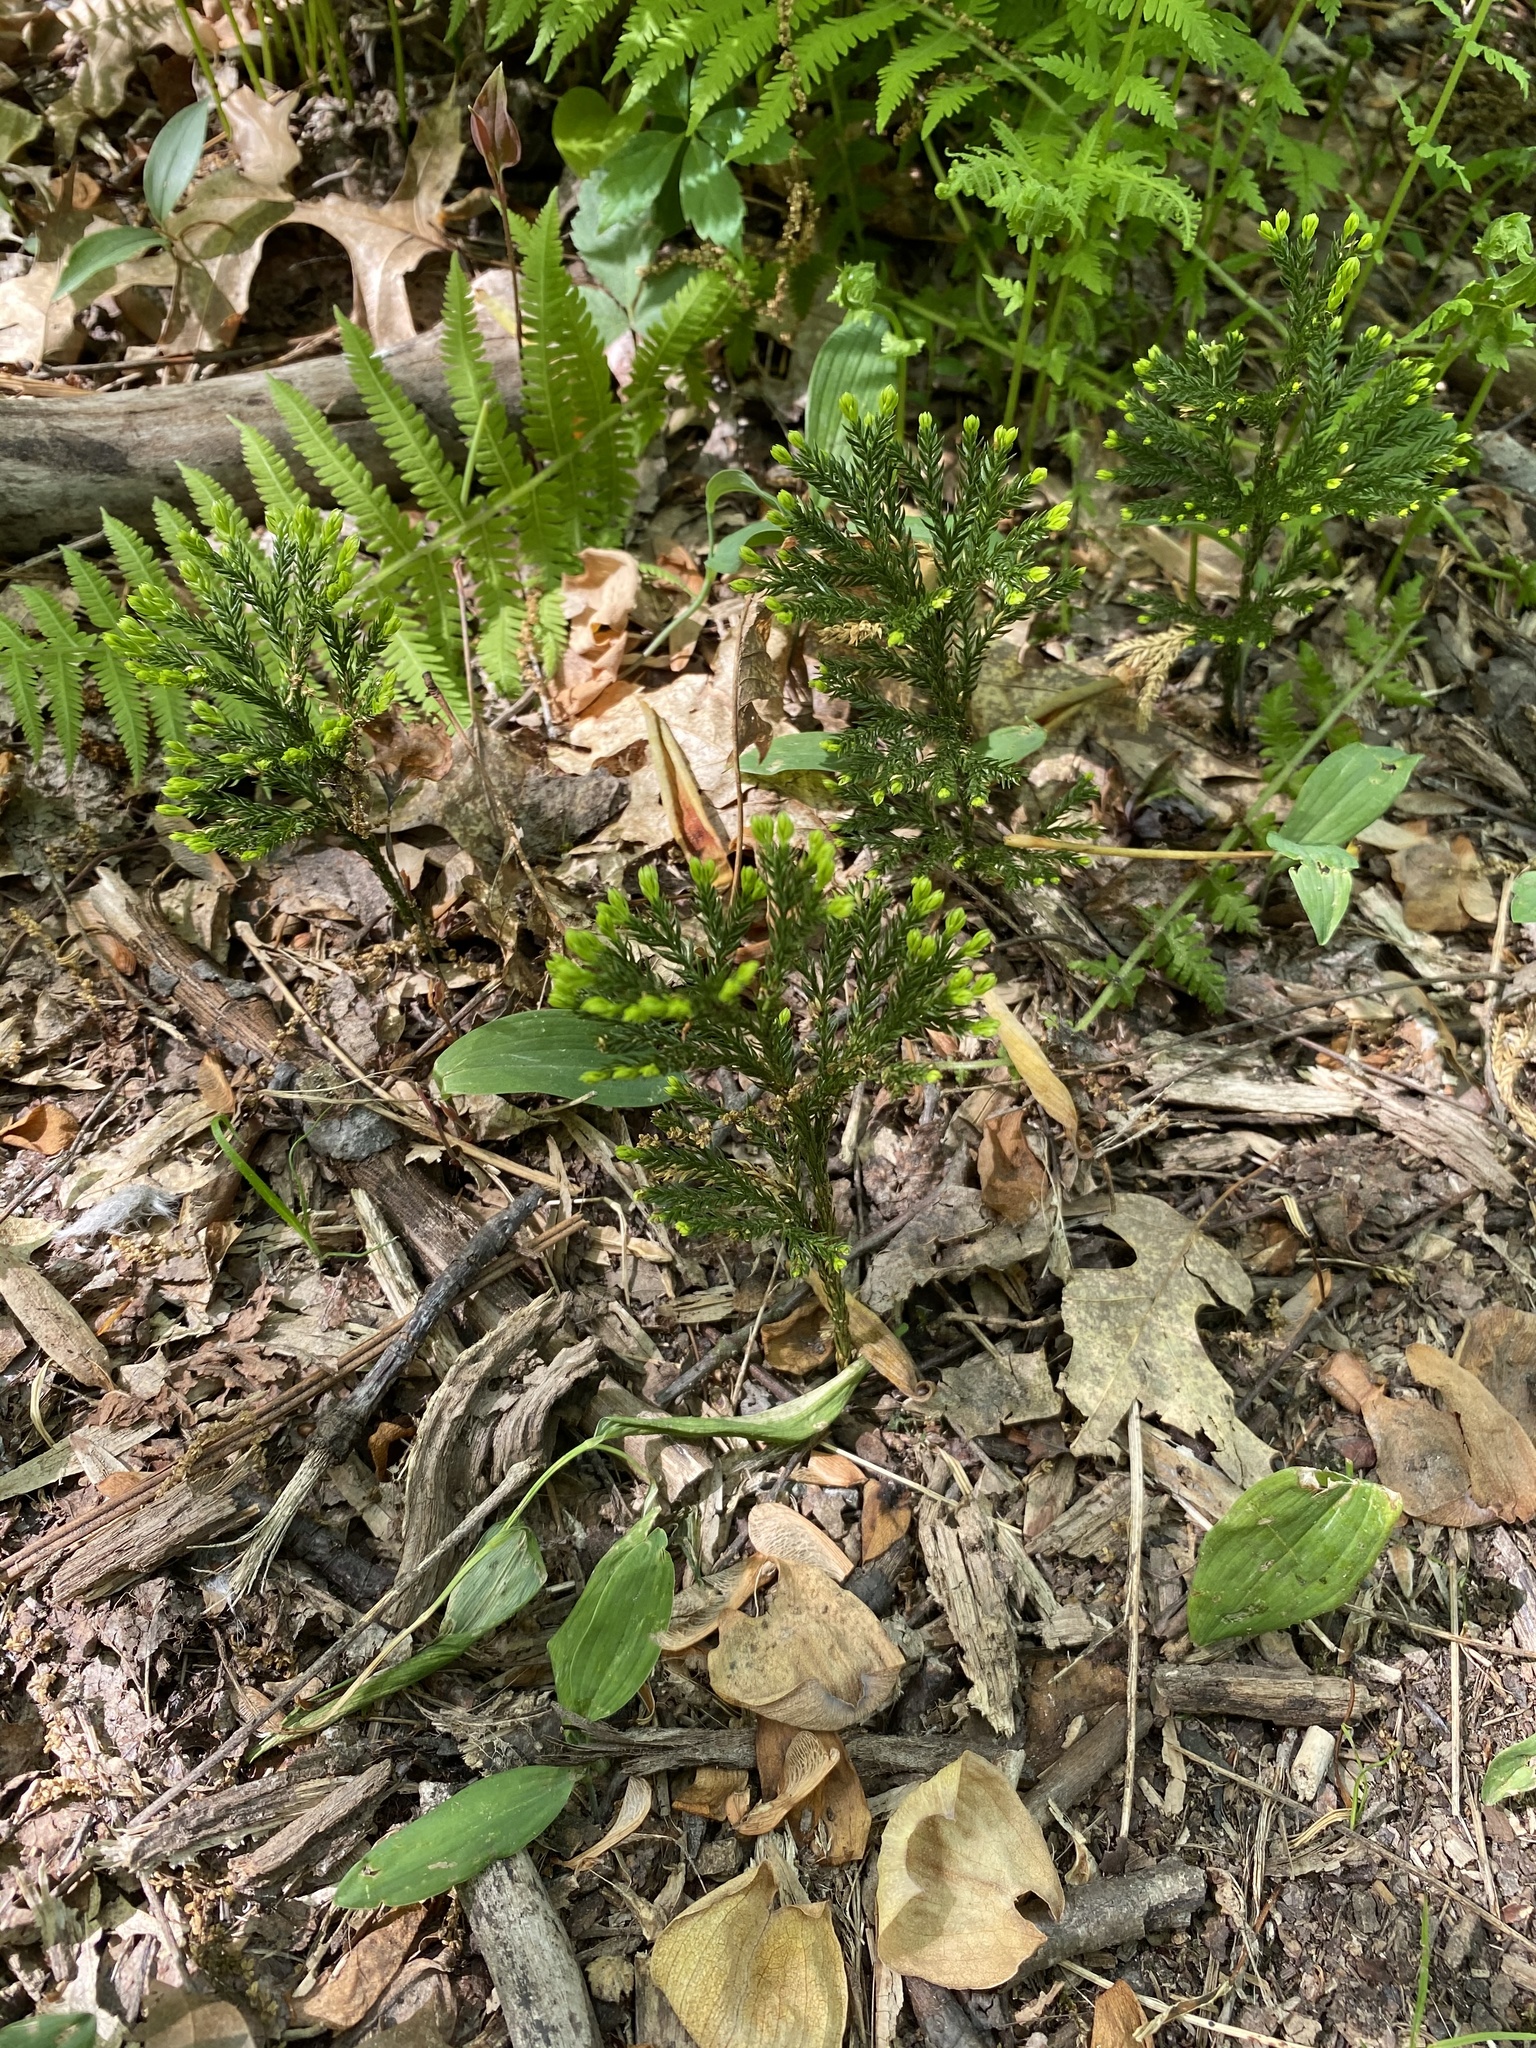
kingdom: Plantae
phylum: Tracheophyta
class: Lycopodiopsida
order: Lycopodiales
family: Lycopodiaceae
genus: Dendrolycopodium
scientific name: Dendrolycopodium obscurum
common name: Common ground-pine
